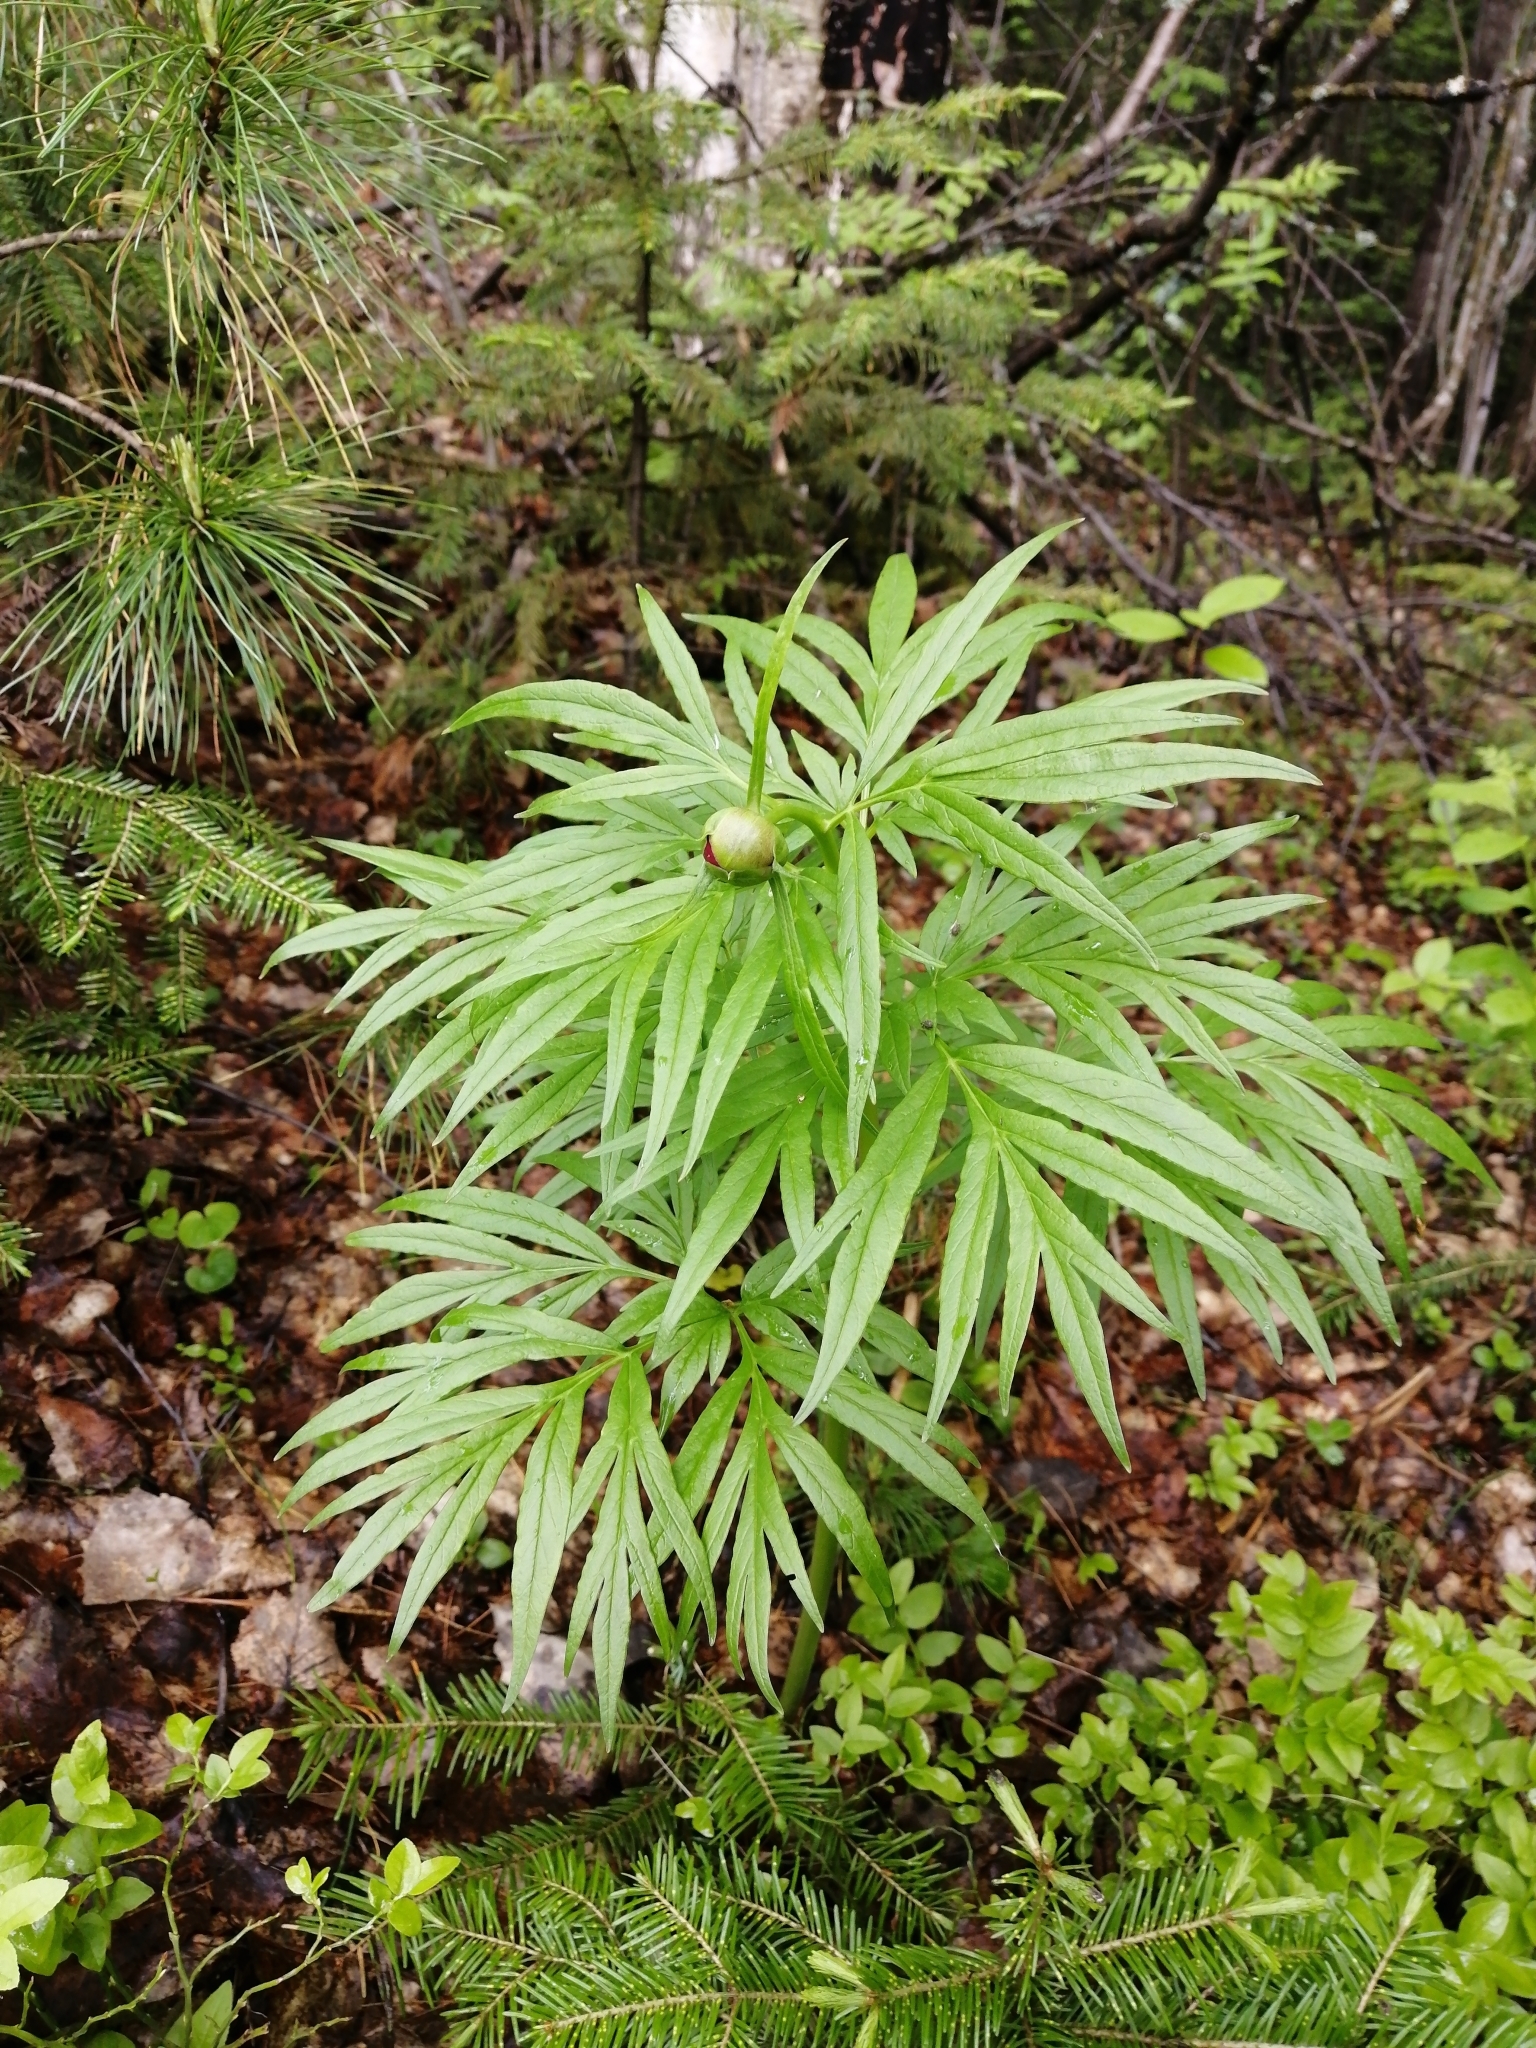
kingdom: Plantae
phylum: Tracheophyta
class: Magnoliopsida
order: Saxifragales
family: Paeoniaceae
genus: Paeonia
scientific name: Paeonia anomala
